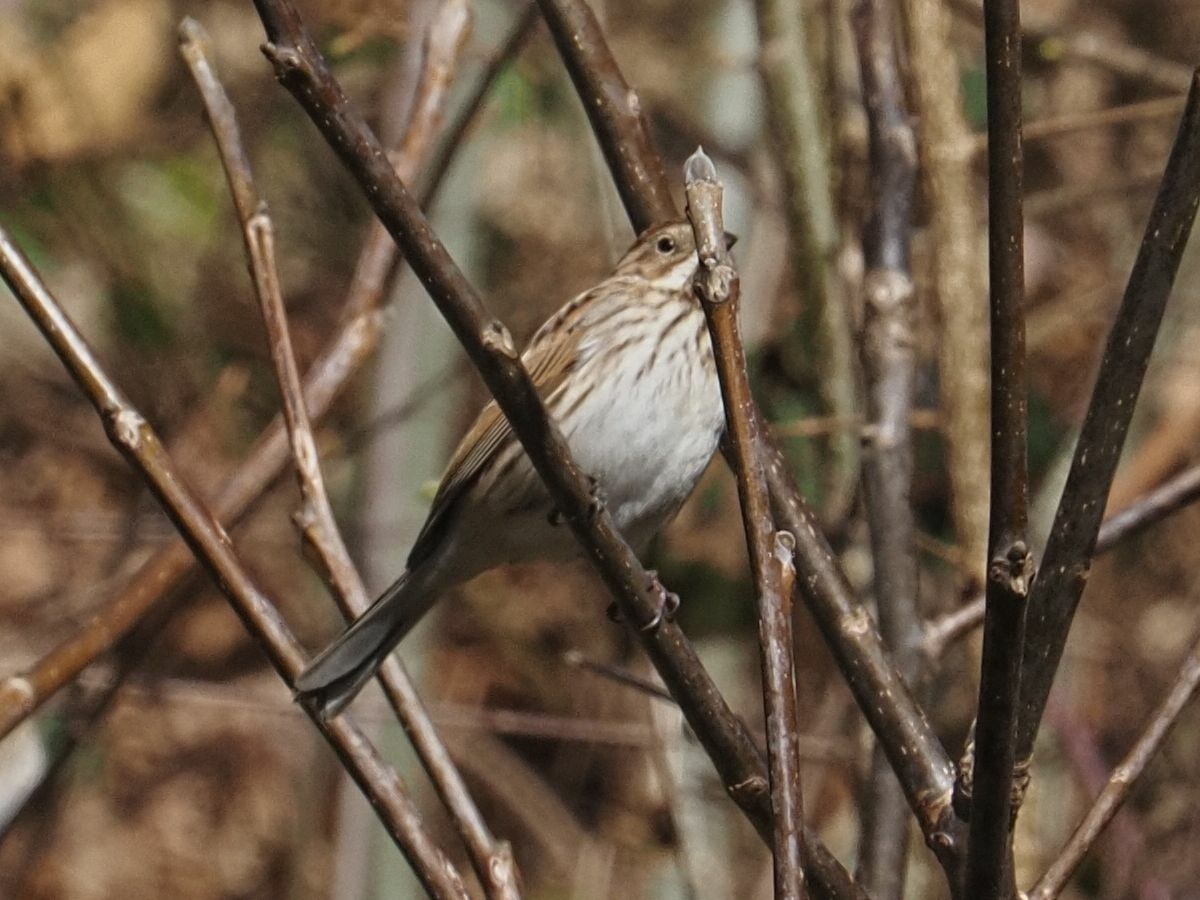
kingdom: Animalia
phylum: Chordata
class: Aves
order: Passeriformes
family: Emberizidae
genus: Emberiza
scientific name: Emberiza schoeniclus
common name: Reed bunting
